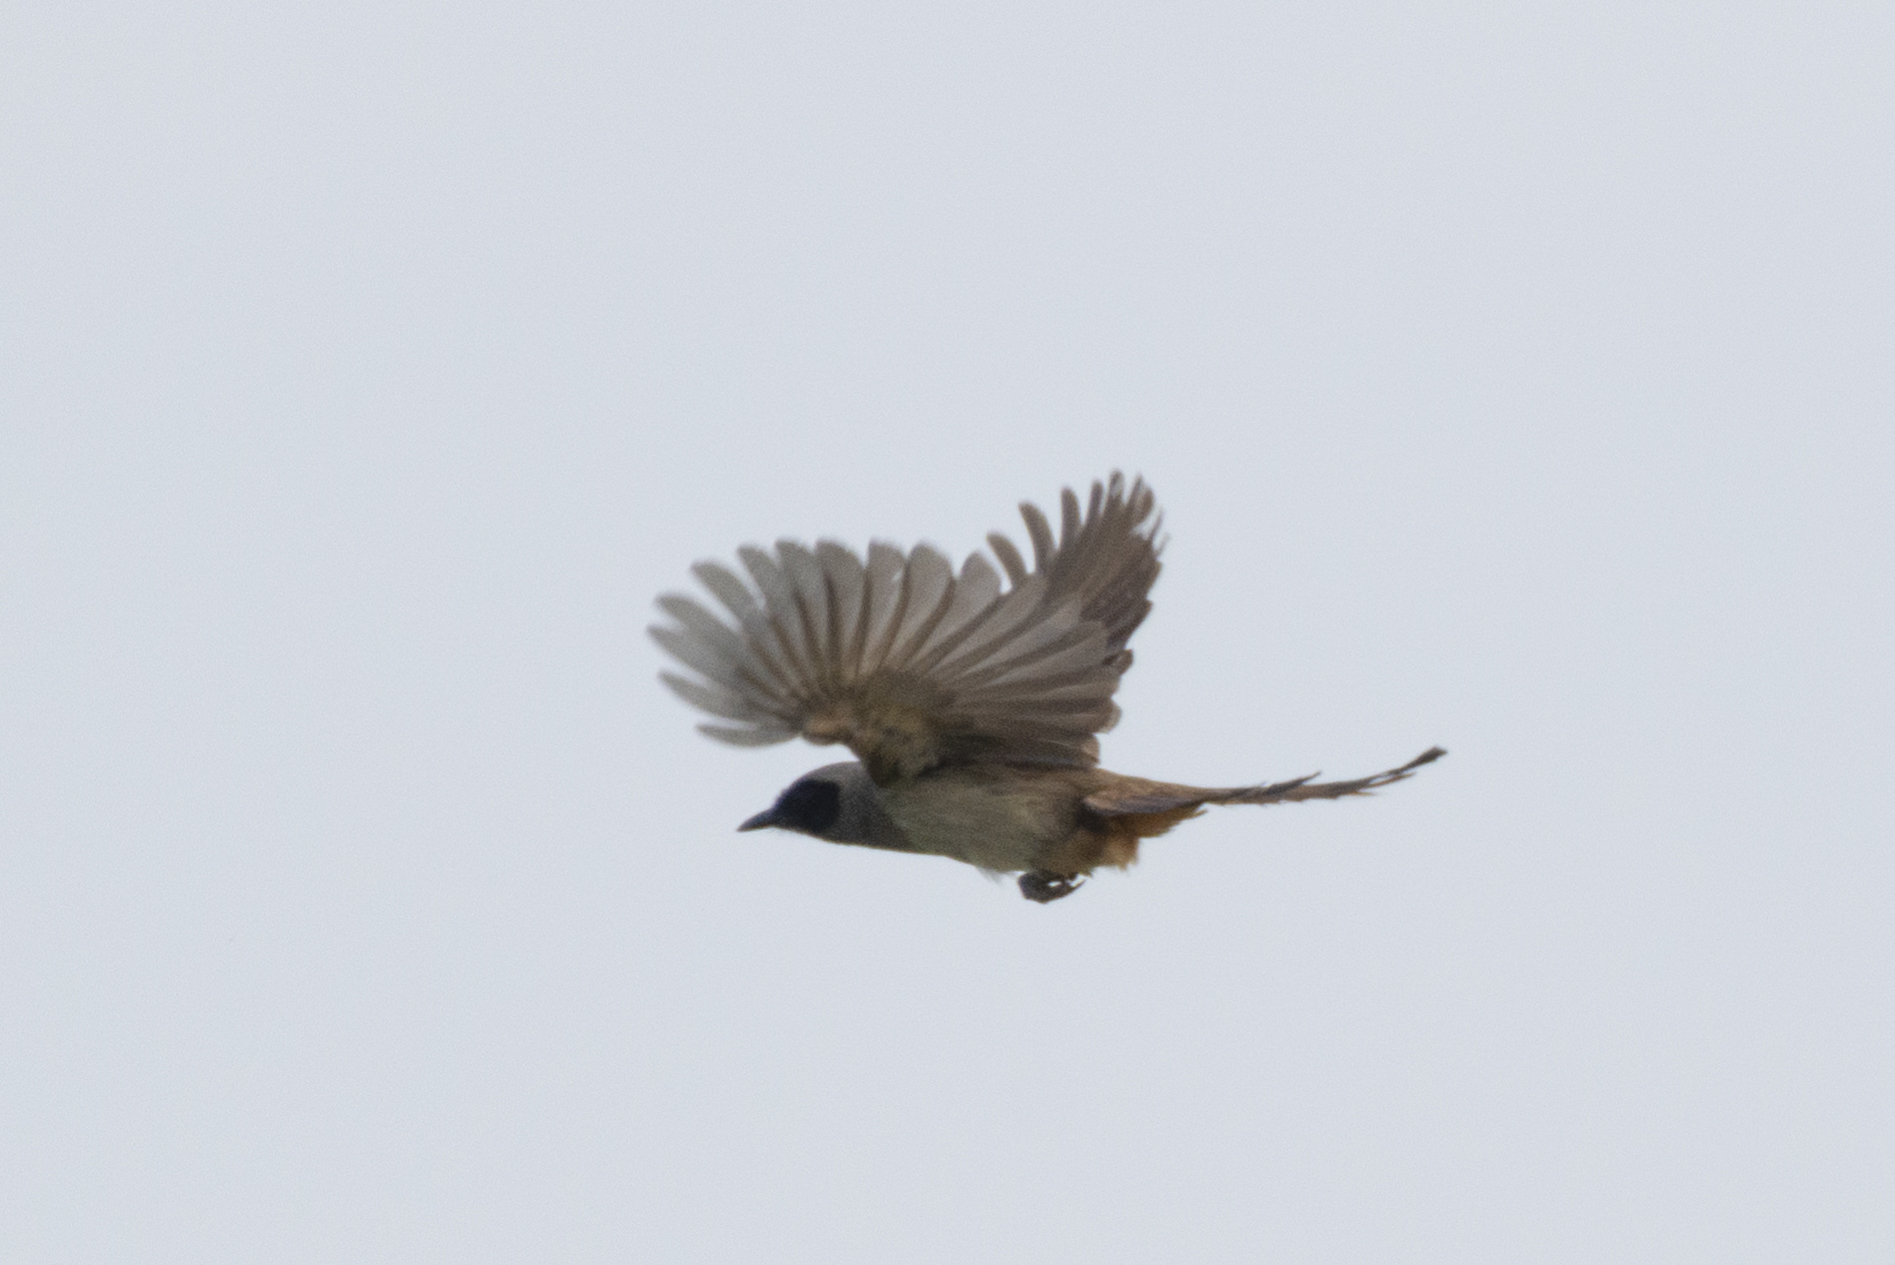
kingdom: Animalia
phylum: Chordata
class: Aves
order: Passeriformes
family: Leiothrichidae
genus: Garrulax
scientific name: Garrulax perspicillatus
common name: Masked laughingthrush
